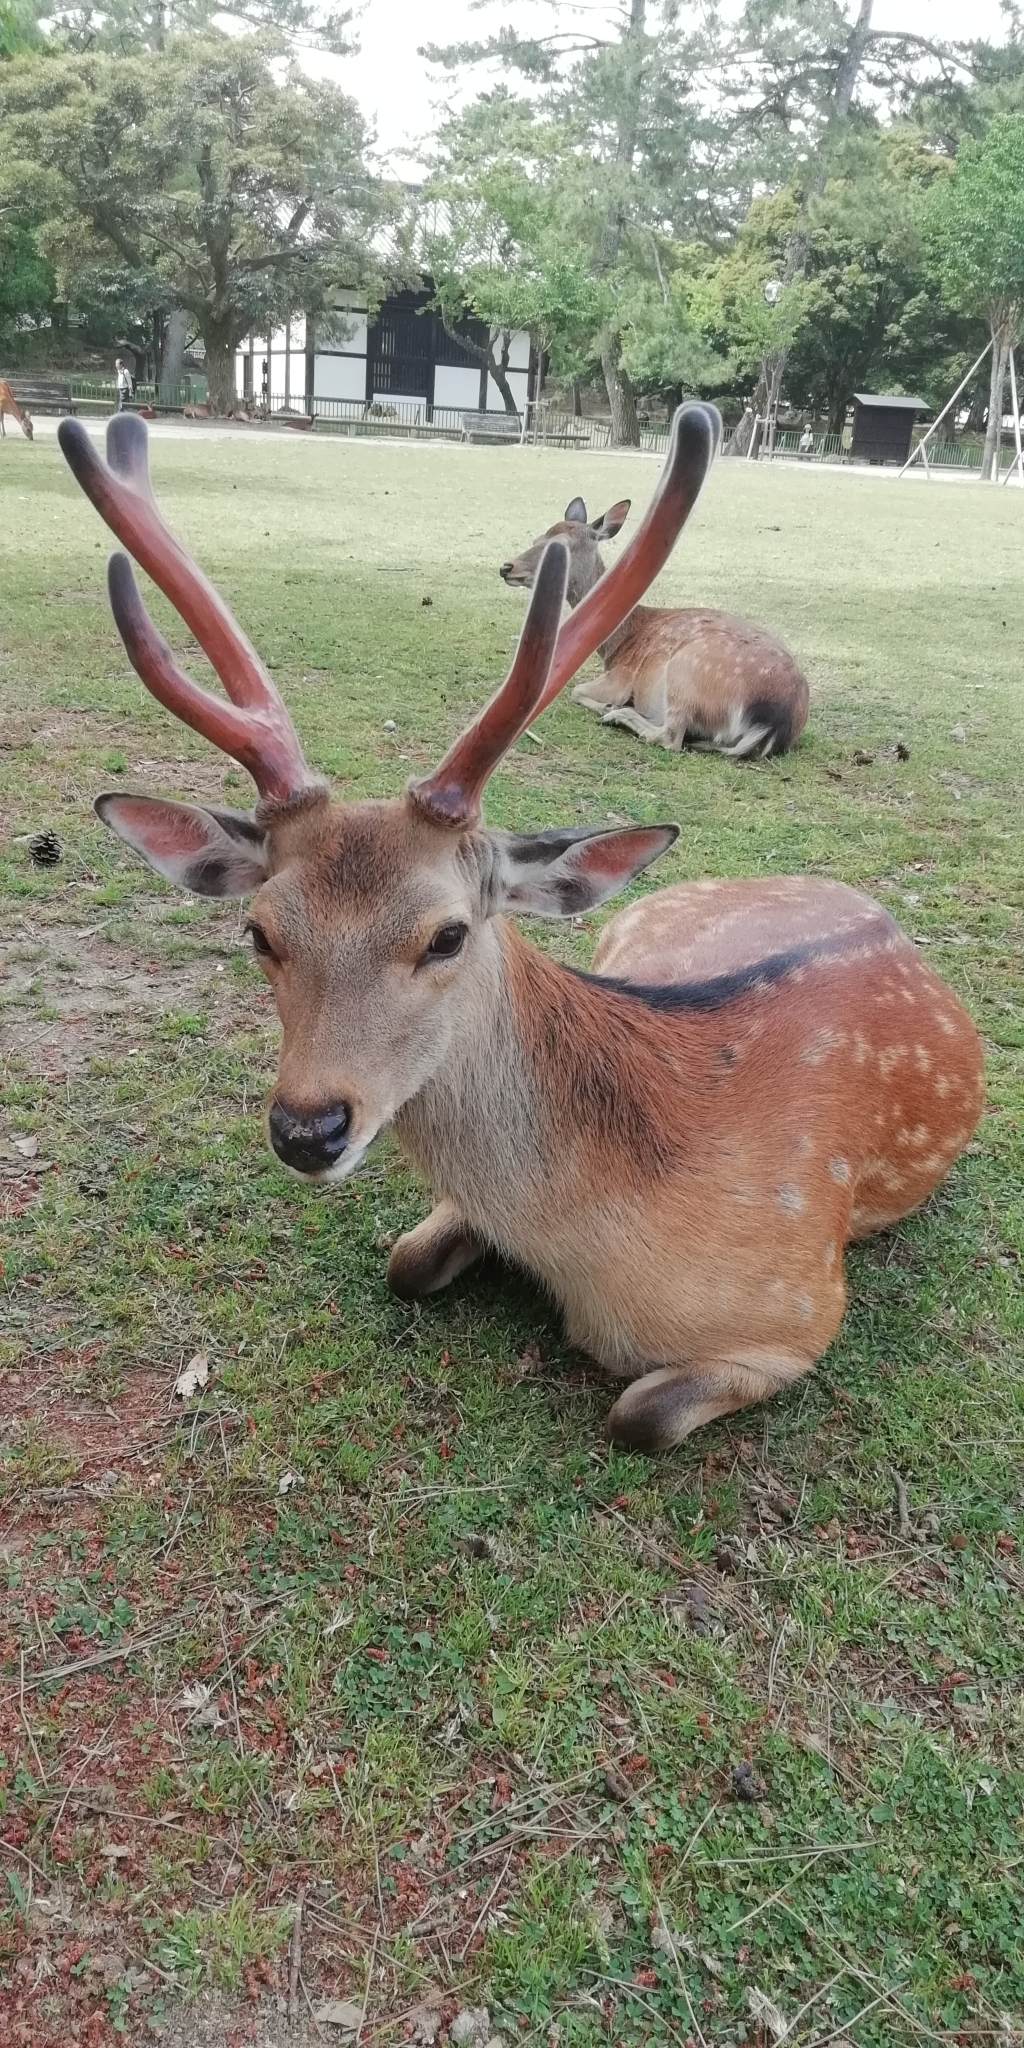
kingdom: Animalia
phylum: Chordata
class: Mammalia
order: Artiodactyla
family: Cervidae
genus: Cervus
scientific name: Cervus nippon
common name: Sika deer
